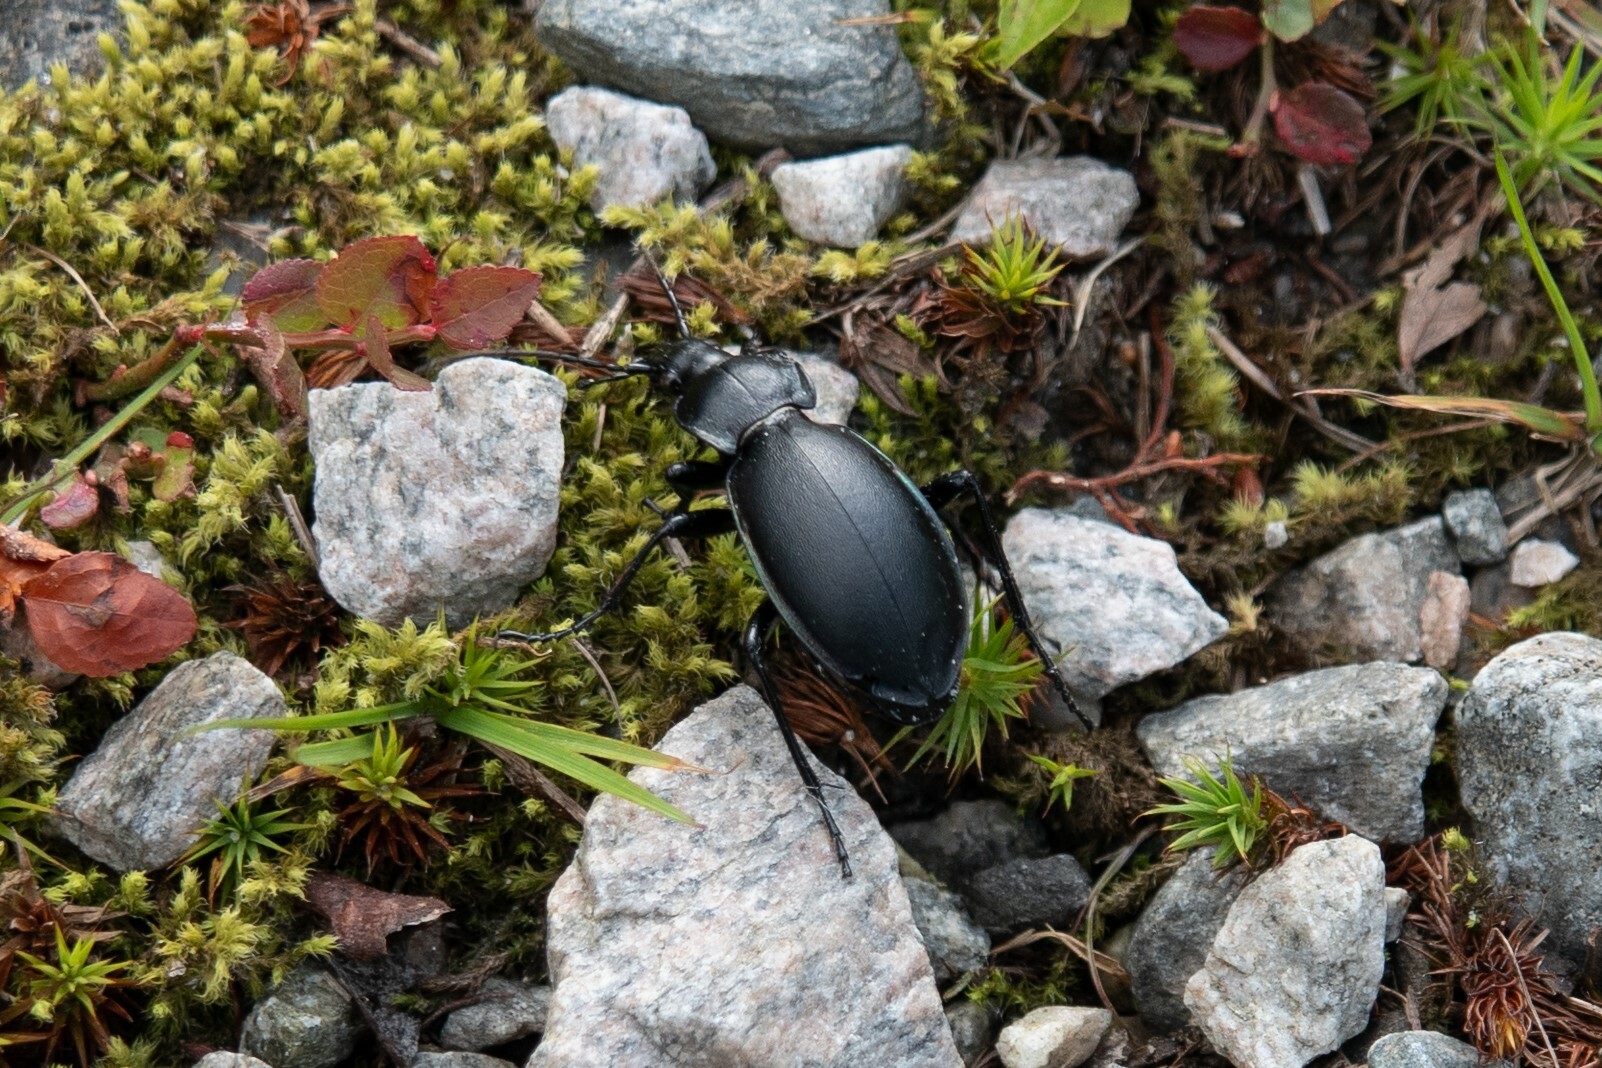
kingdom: Animalia
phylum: Arthropoda
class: Insecta
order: Coleoptera
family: Carabidae
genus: Carabus
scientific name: Carabus violaceus
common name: Violet ground beetle
